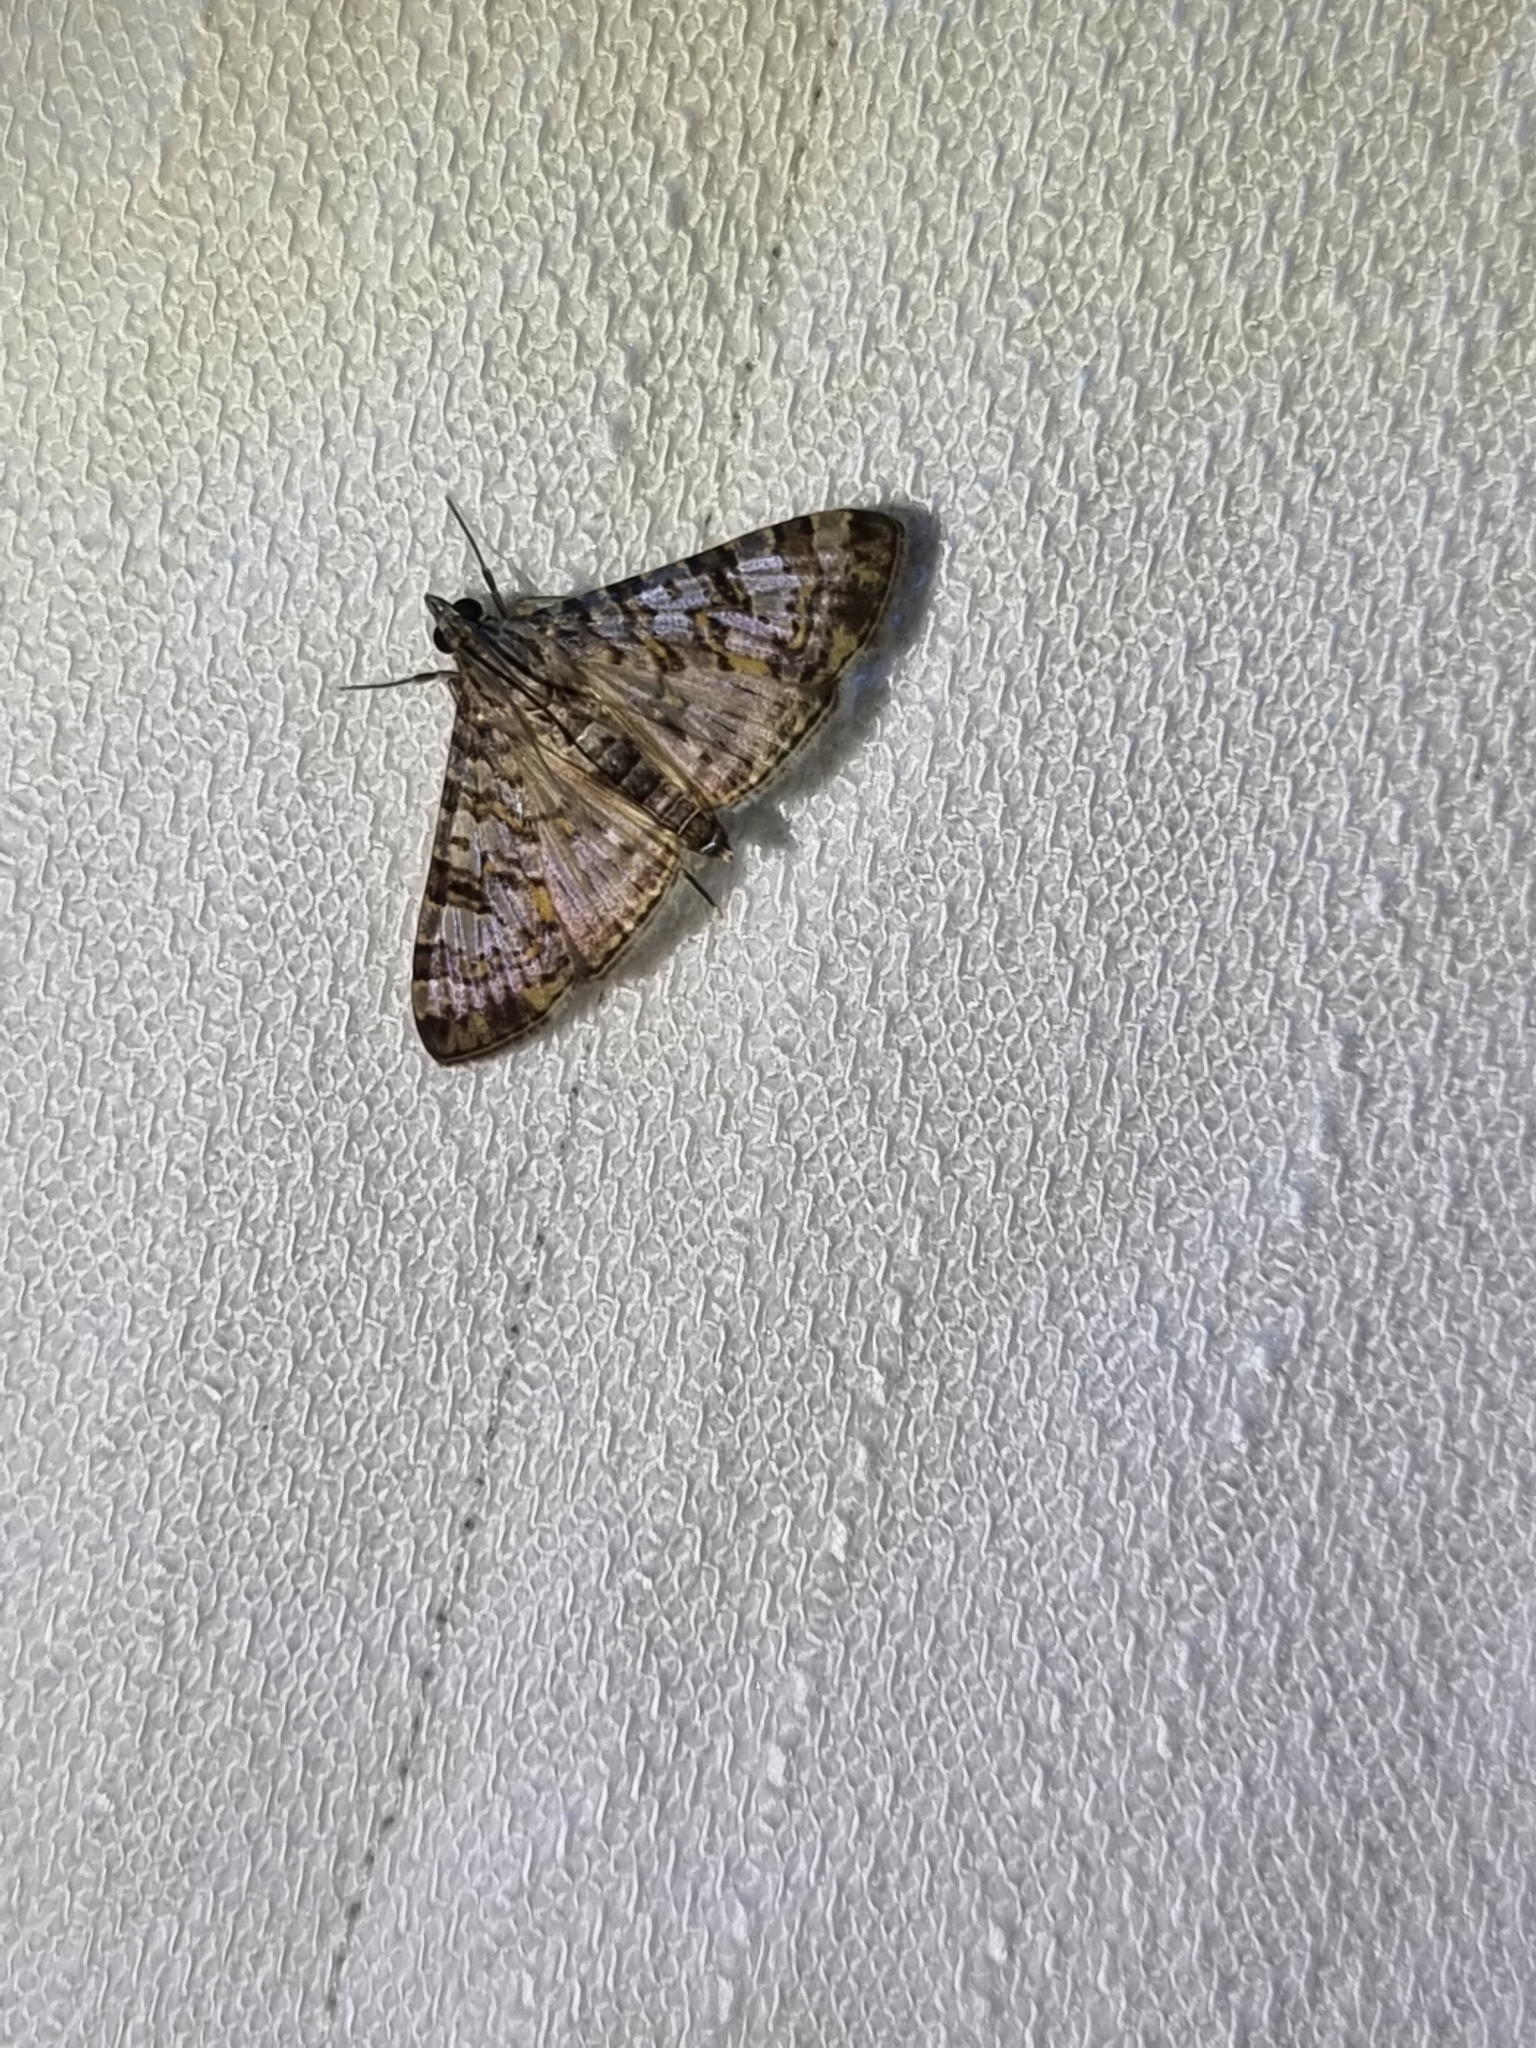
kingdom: Animalia
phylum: Arthropoda
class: Insecta
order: Lepidoptera
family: Crambidae
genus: Dysallacta
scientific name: Dysallacta negatalis
